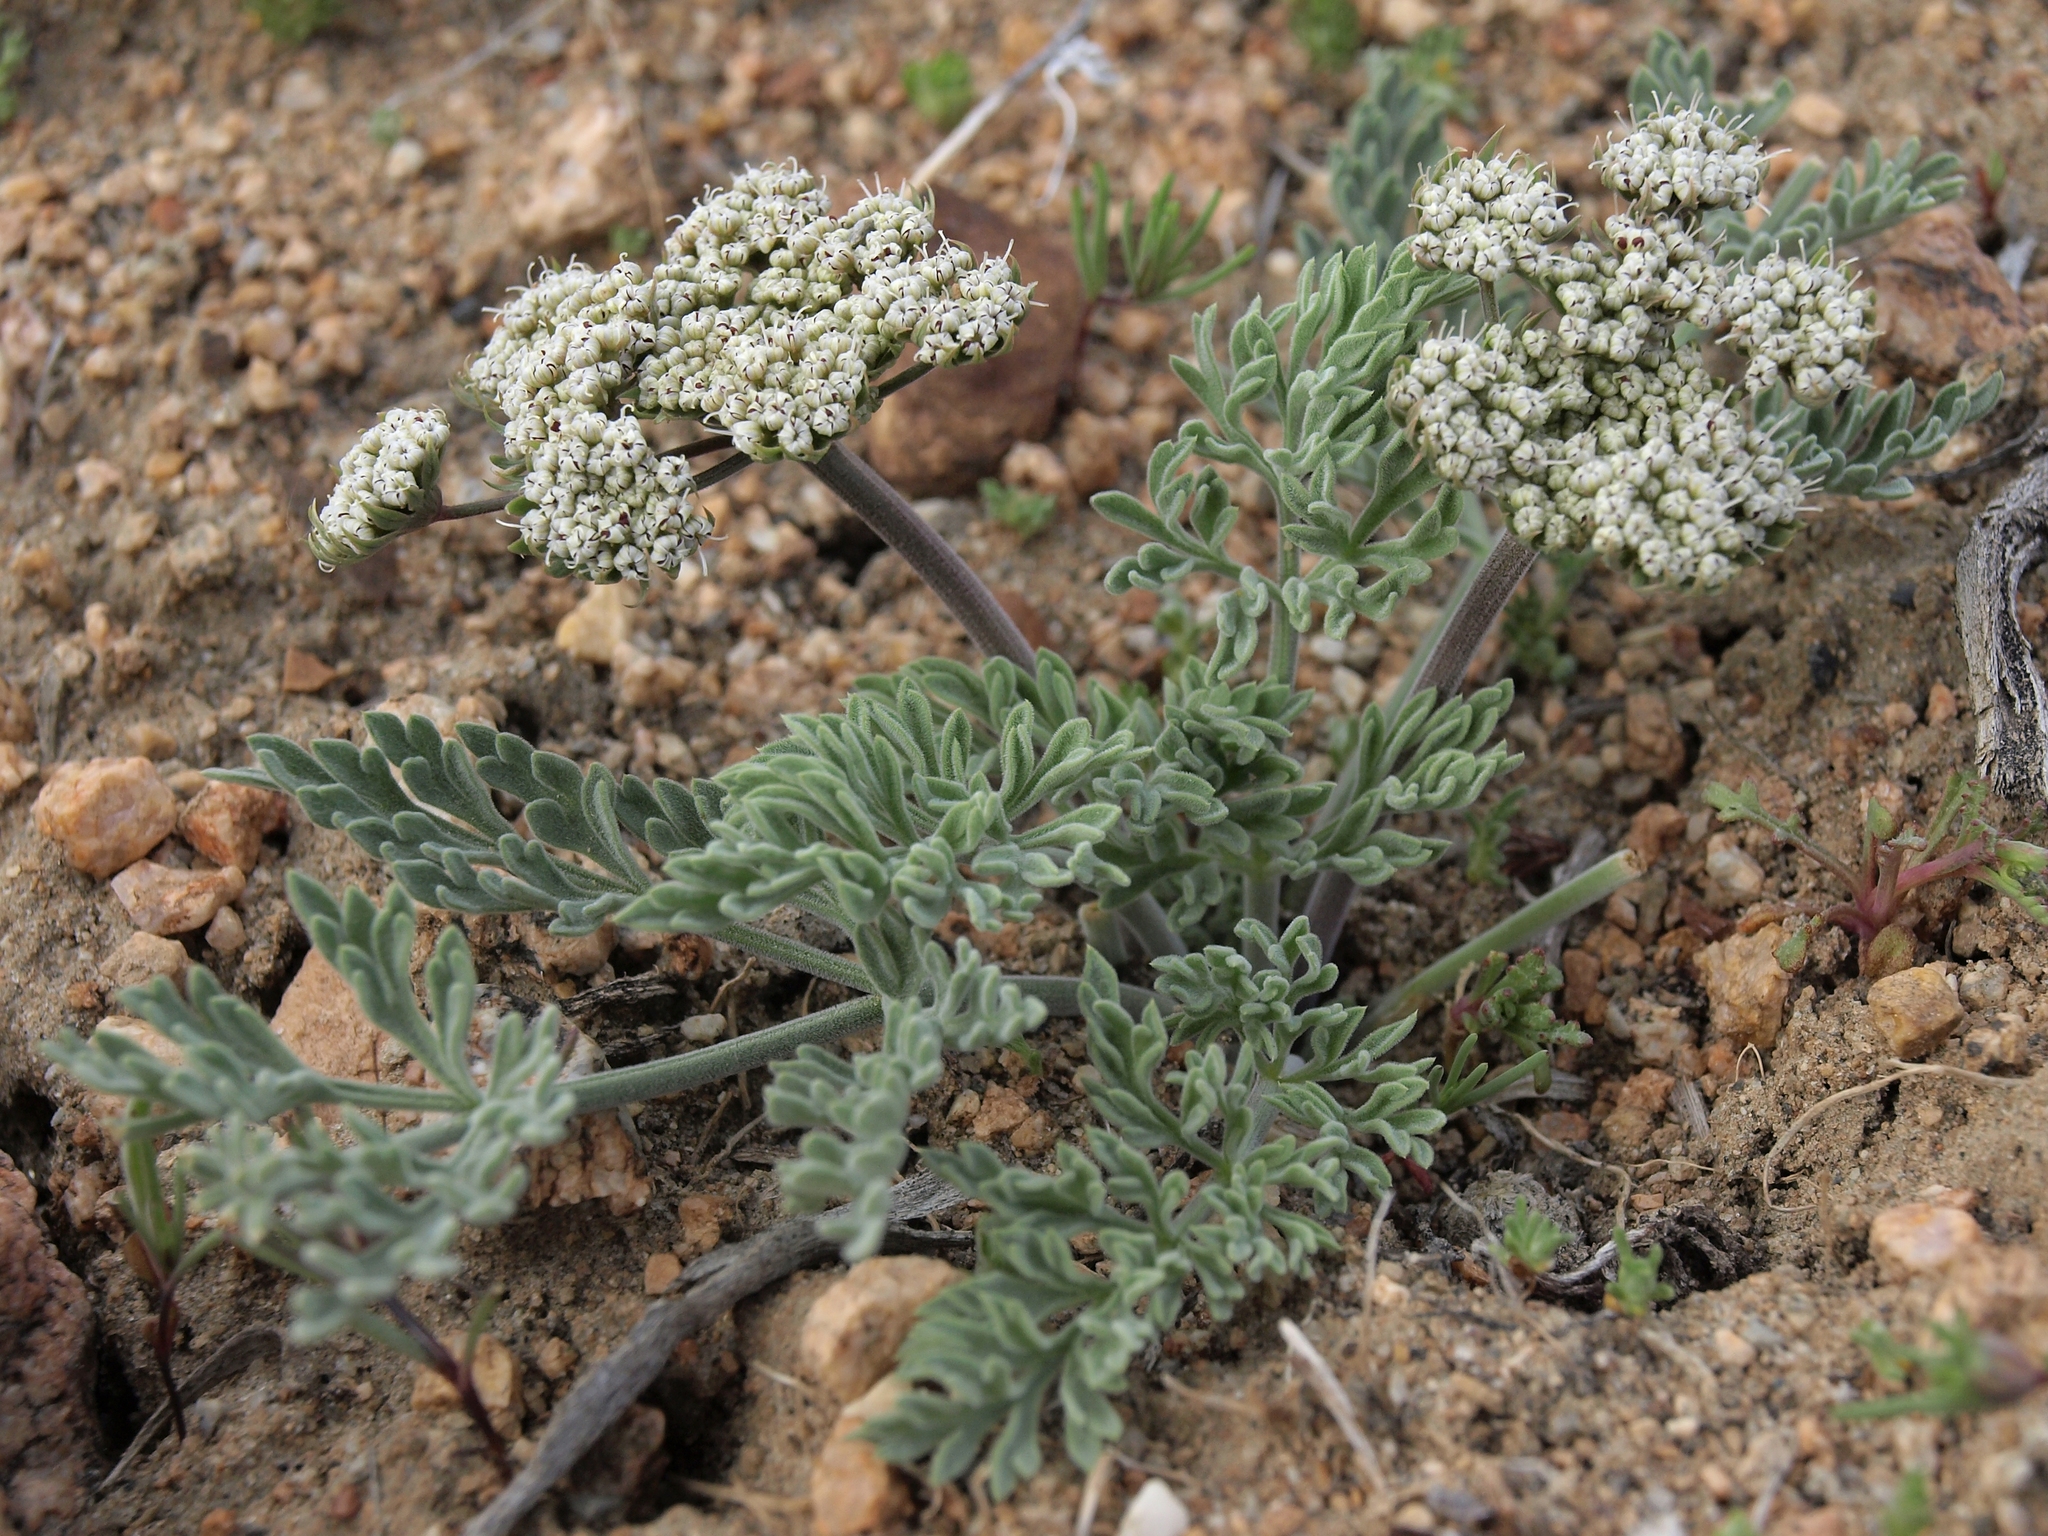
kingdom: Plantae
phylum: Tracheophyta
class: Magnoliopsida
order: Apiales
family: Apiaceae
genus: Lomatium
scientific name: Lomatium nevadense
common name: Nevada lomatium
